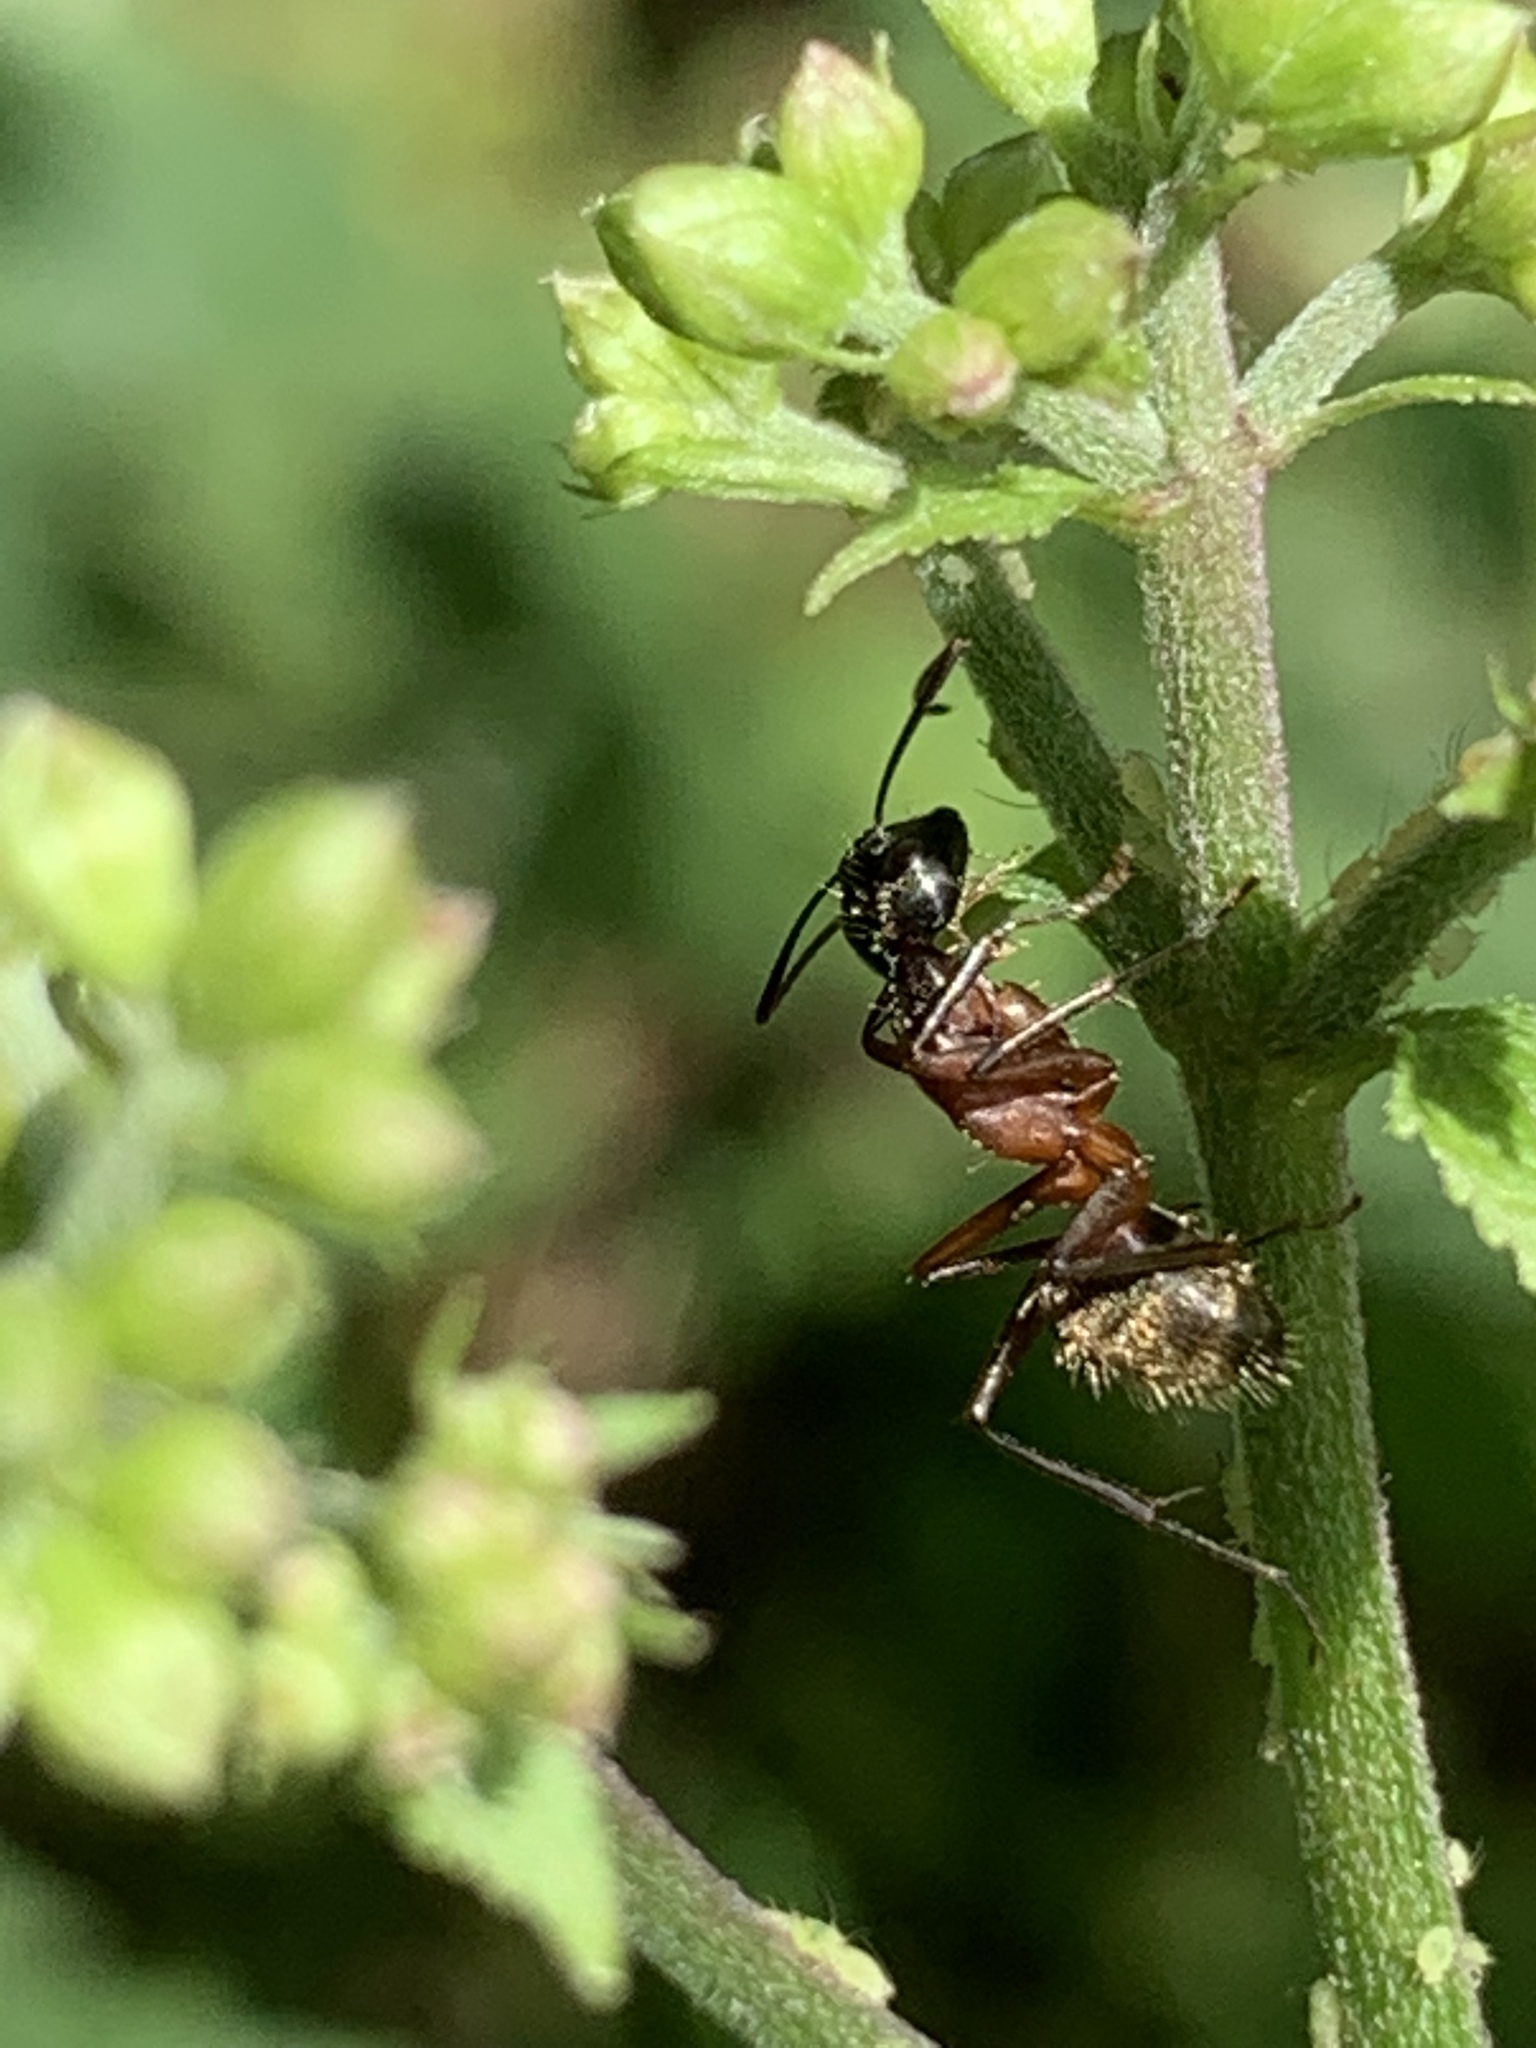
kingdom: Animalia
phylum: Arthropoda
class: Insecta
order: Hymenoptera
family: Formicidae
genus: Camponotus
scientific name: Camponotus chromaiodes
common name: Red carpenter ant
